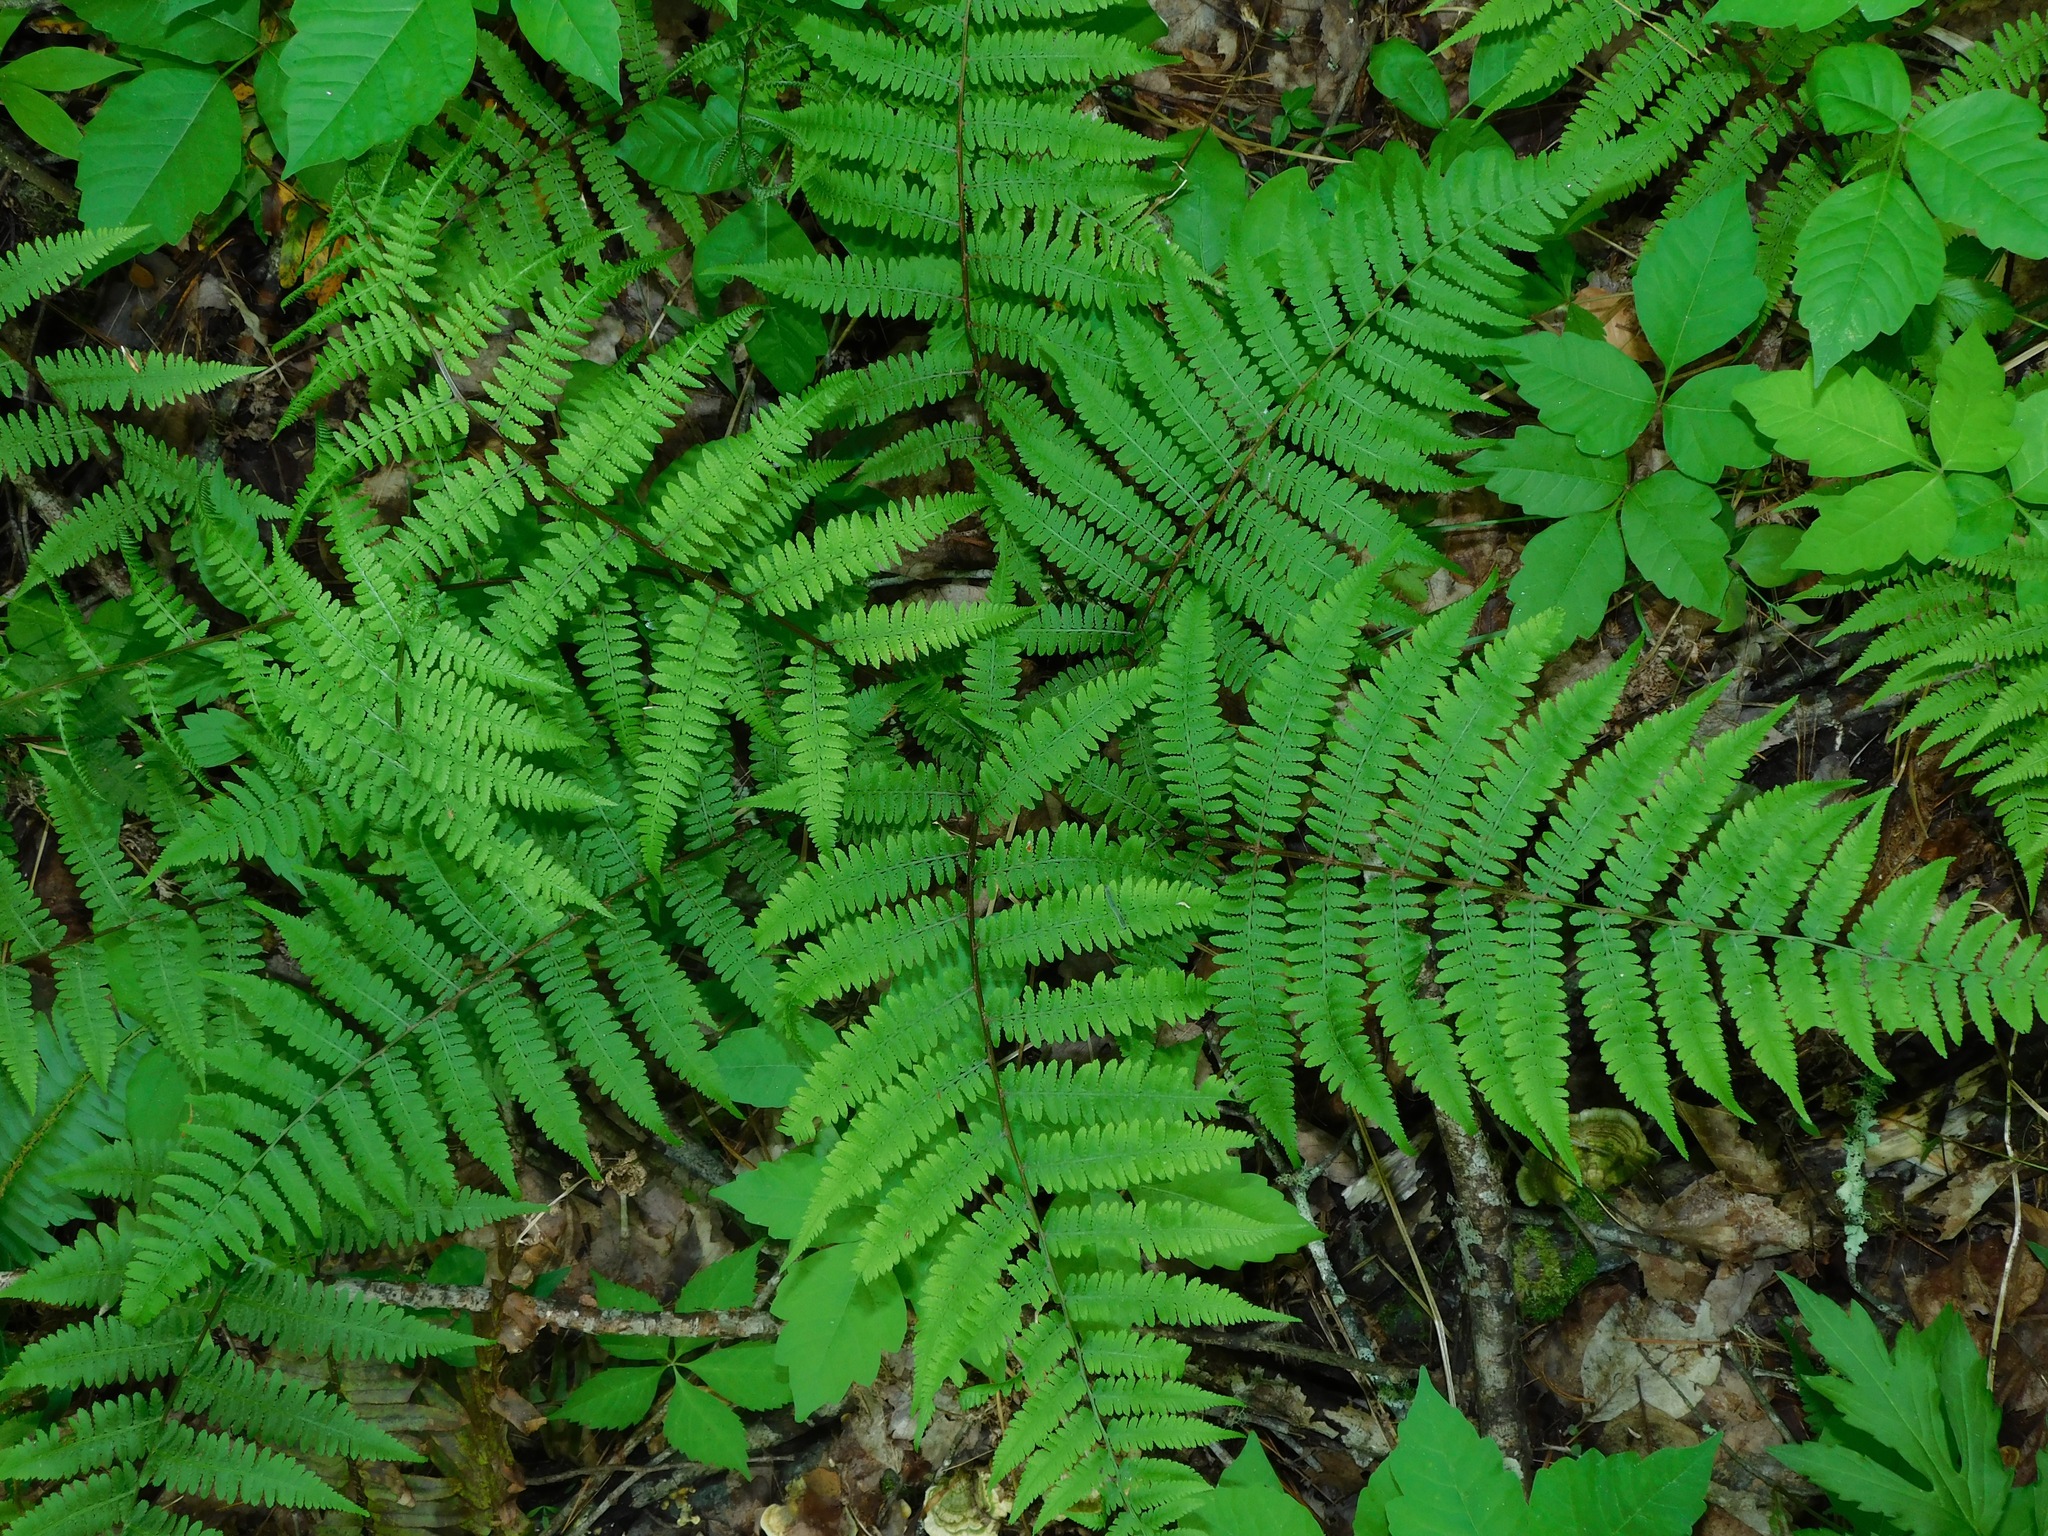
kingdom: Plantae
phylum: Tracheophyta
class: Polypodiopsida
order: Polypodiales
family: Athyriaceae
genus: Athyrium
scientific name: Athyrium asplenioides
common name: Southern lady fern
